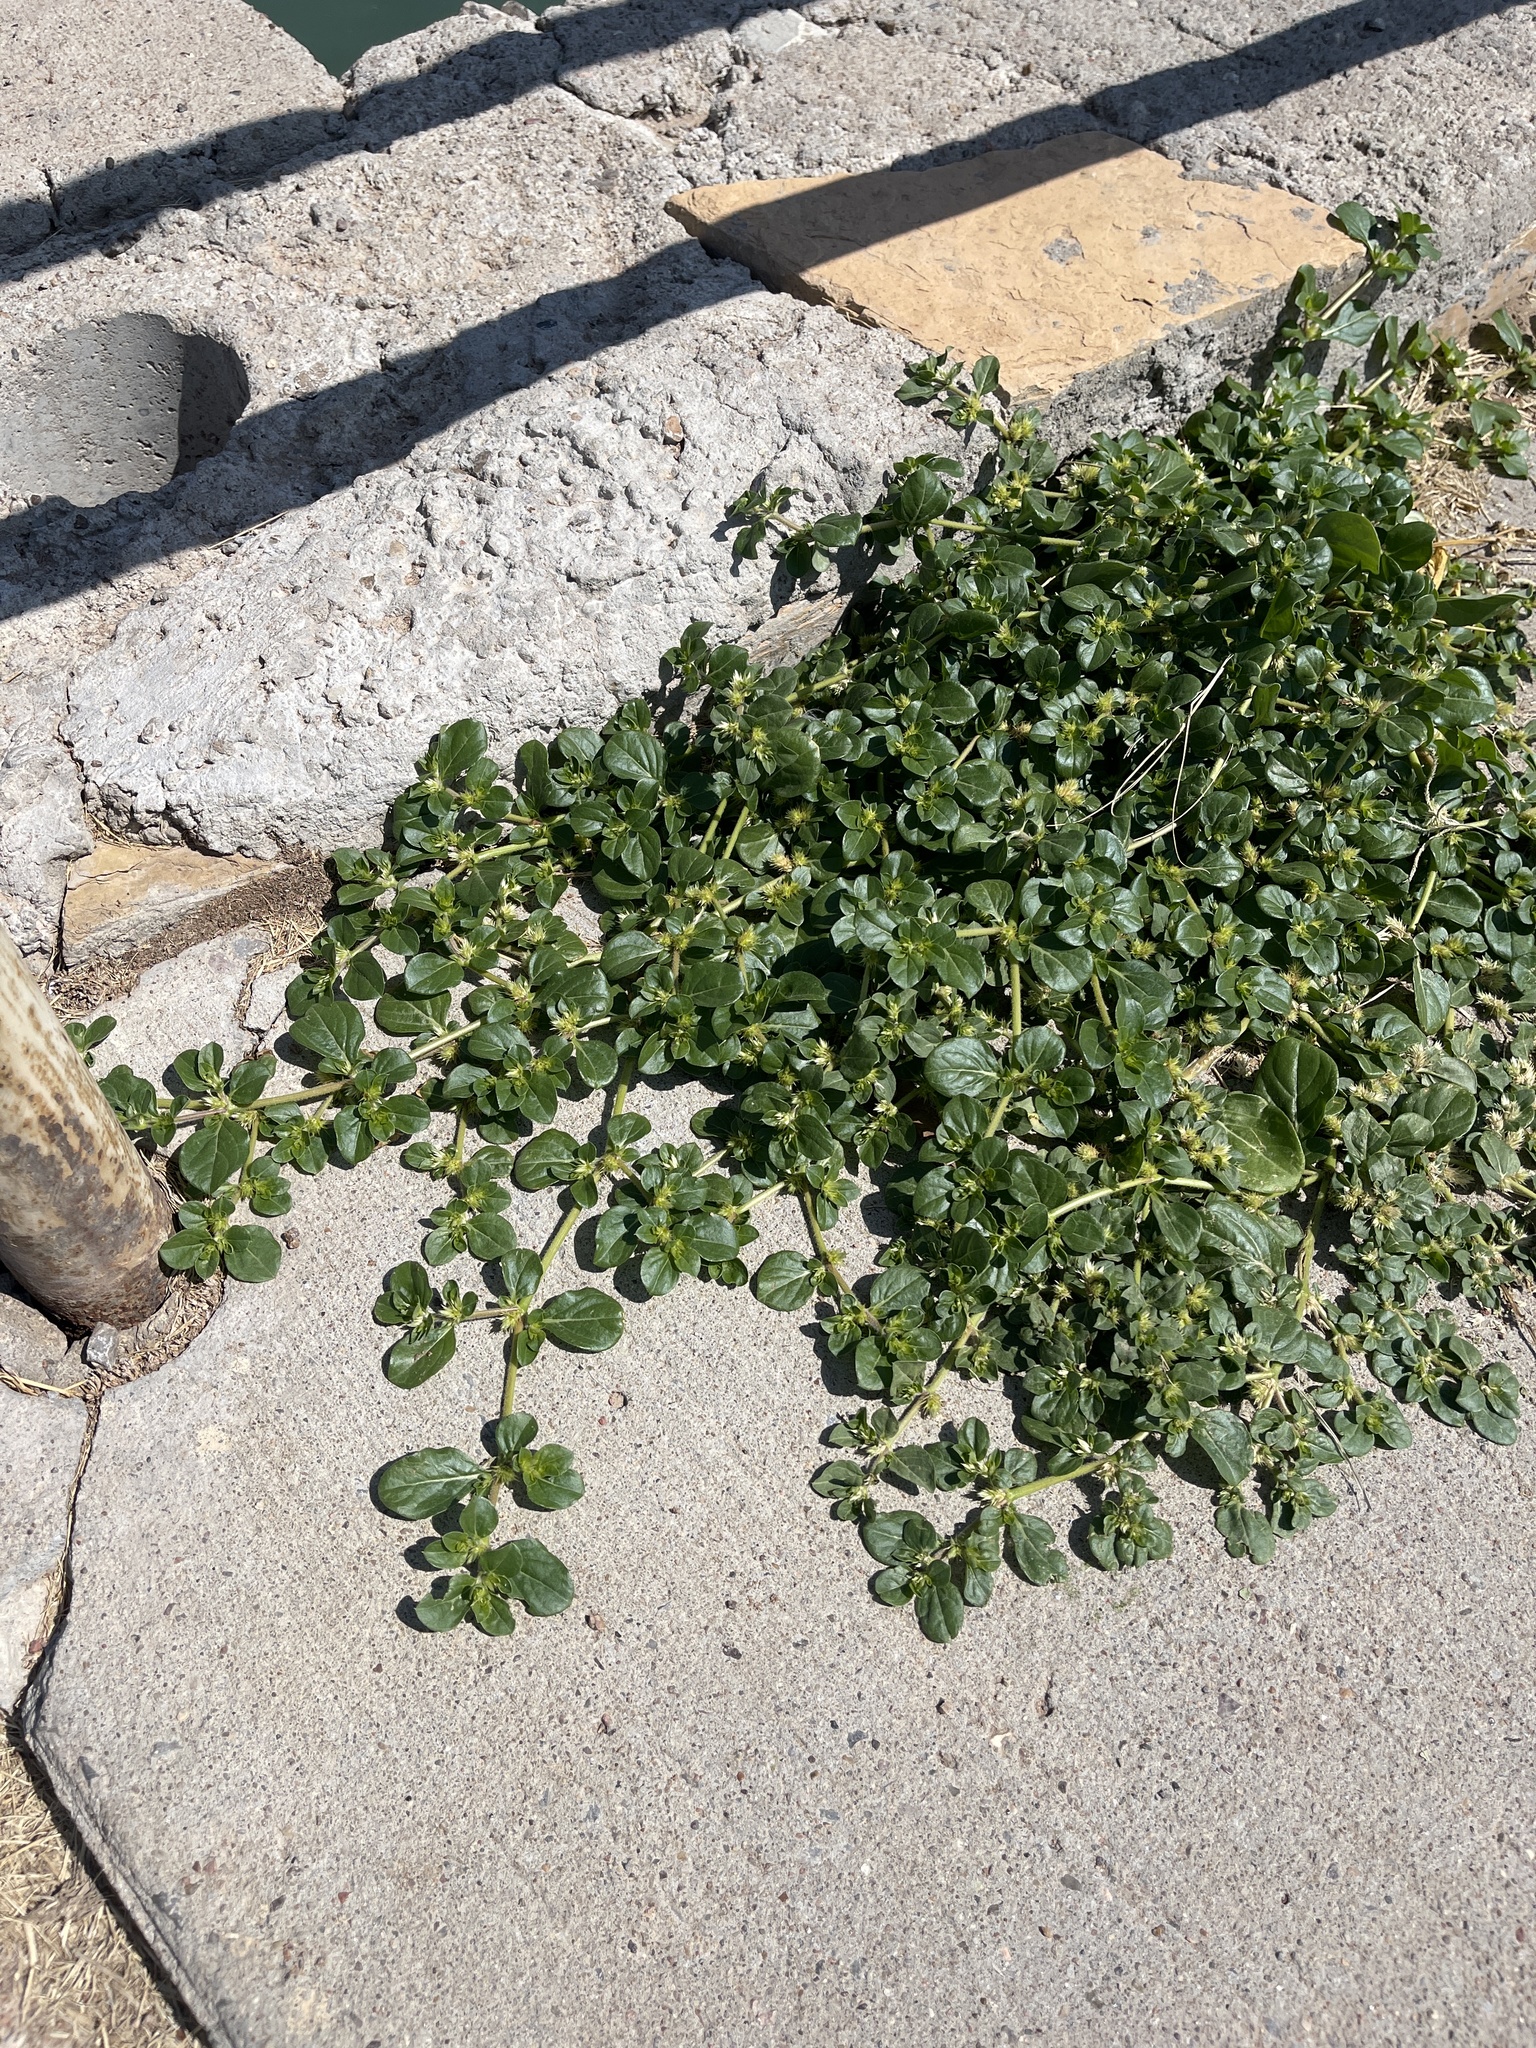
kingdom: Plantae
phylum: Tracheophyta
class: Magnoliopsida
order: Caryophyllales
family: Aizoaceae
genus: Trianthema
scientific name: Trianthema portulacastrum
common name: Desert horsepurslane
